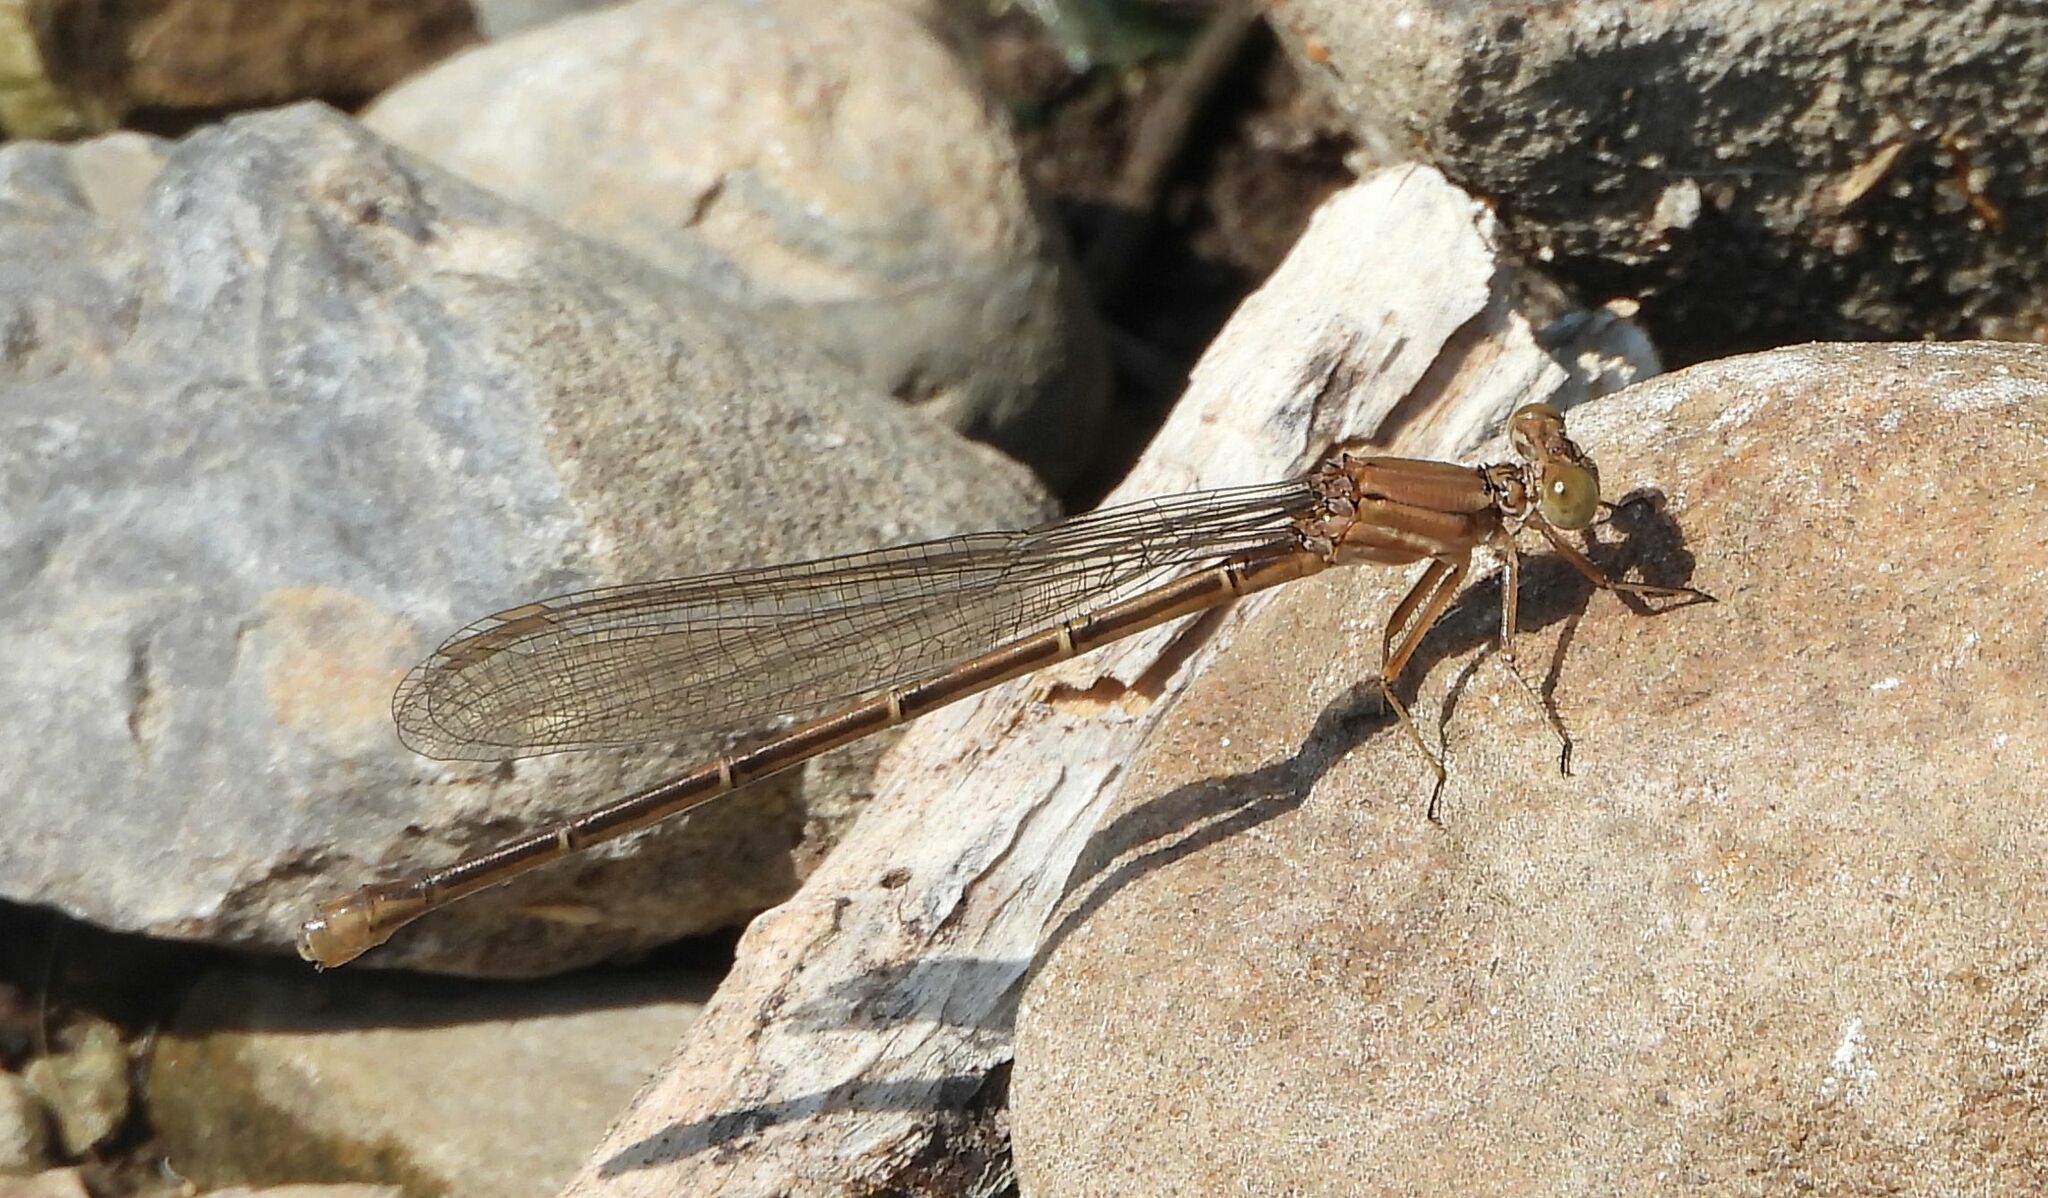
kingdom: Animalia
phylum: Arthropoda
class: Insecta
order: Odonata
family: Coenagrionidae
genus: Argia
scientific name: Argia moesta
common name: Powdered dancer
